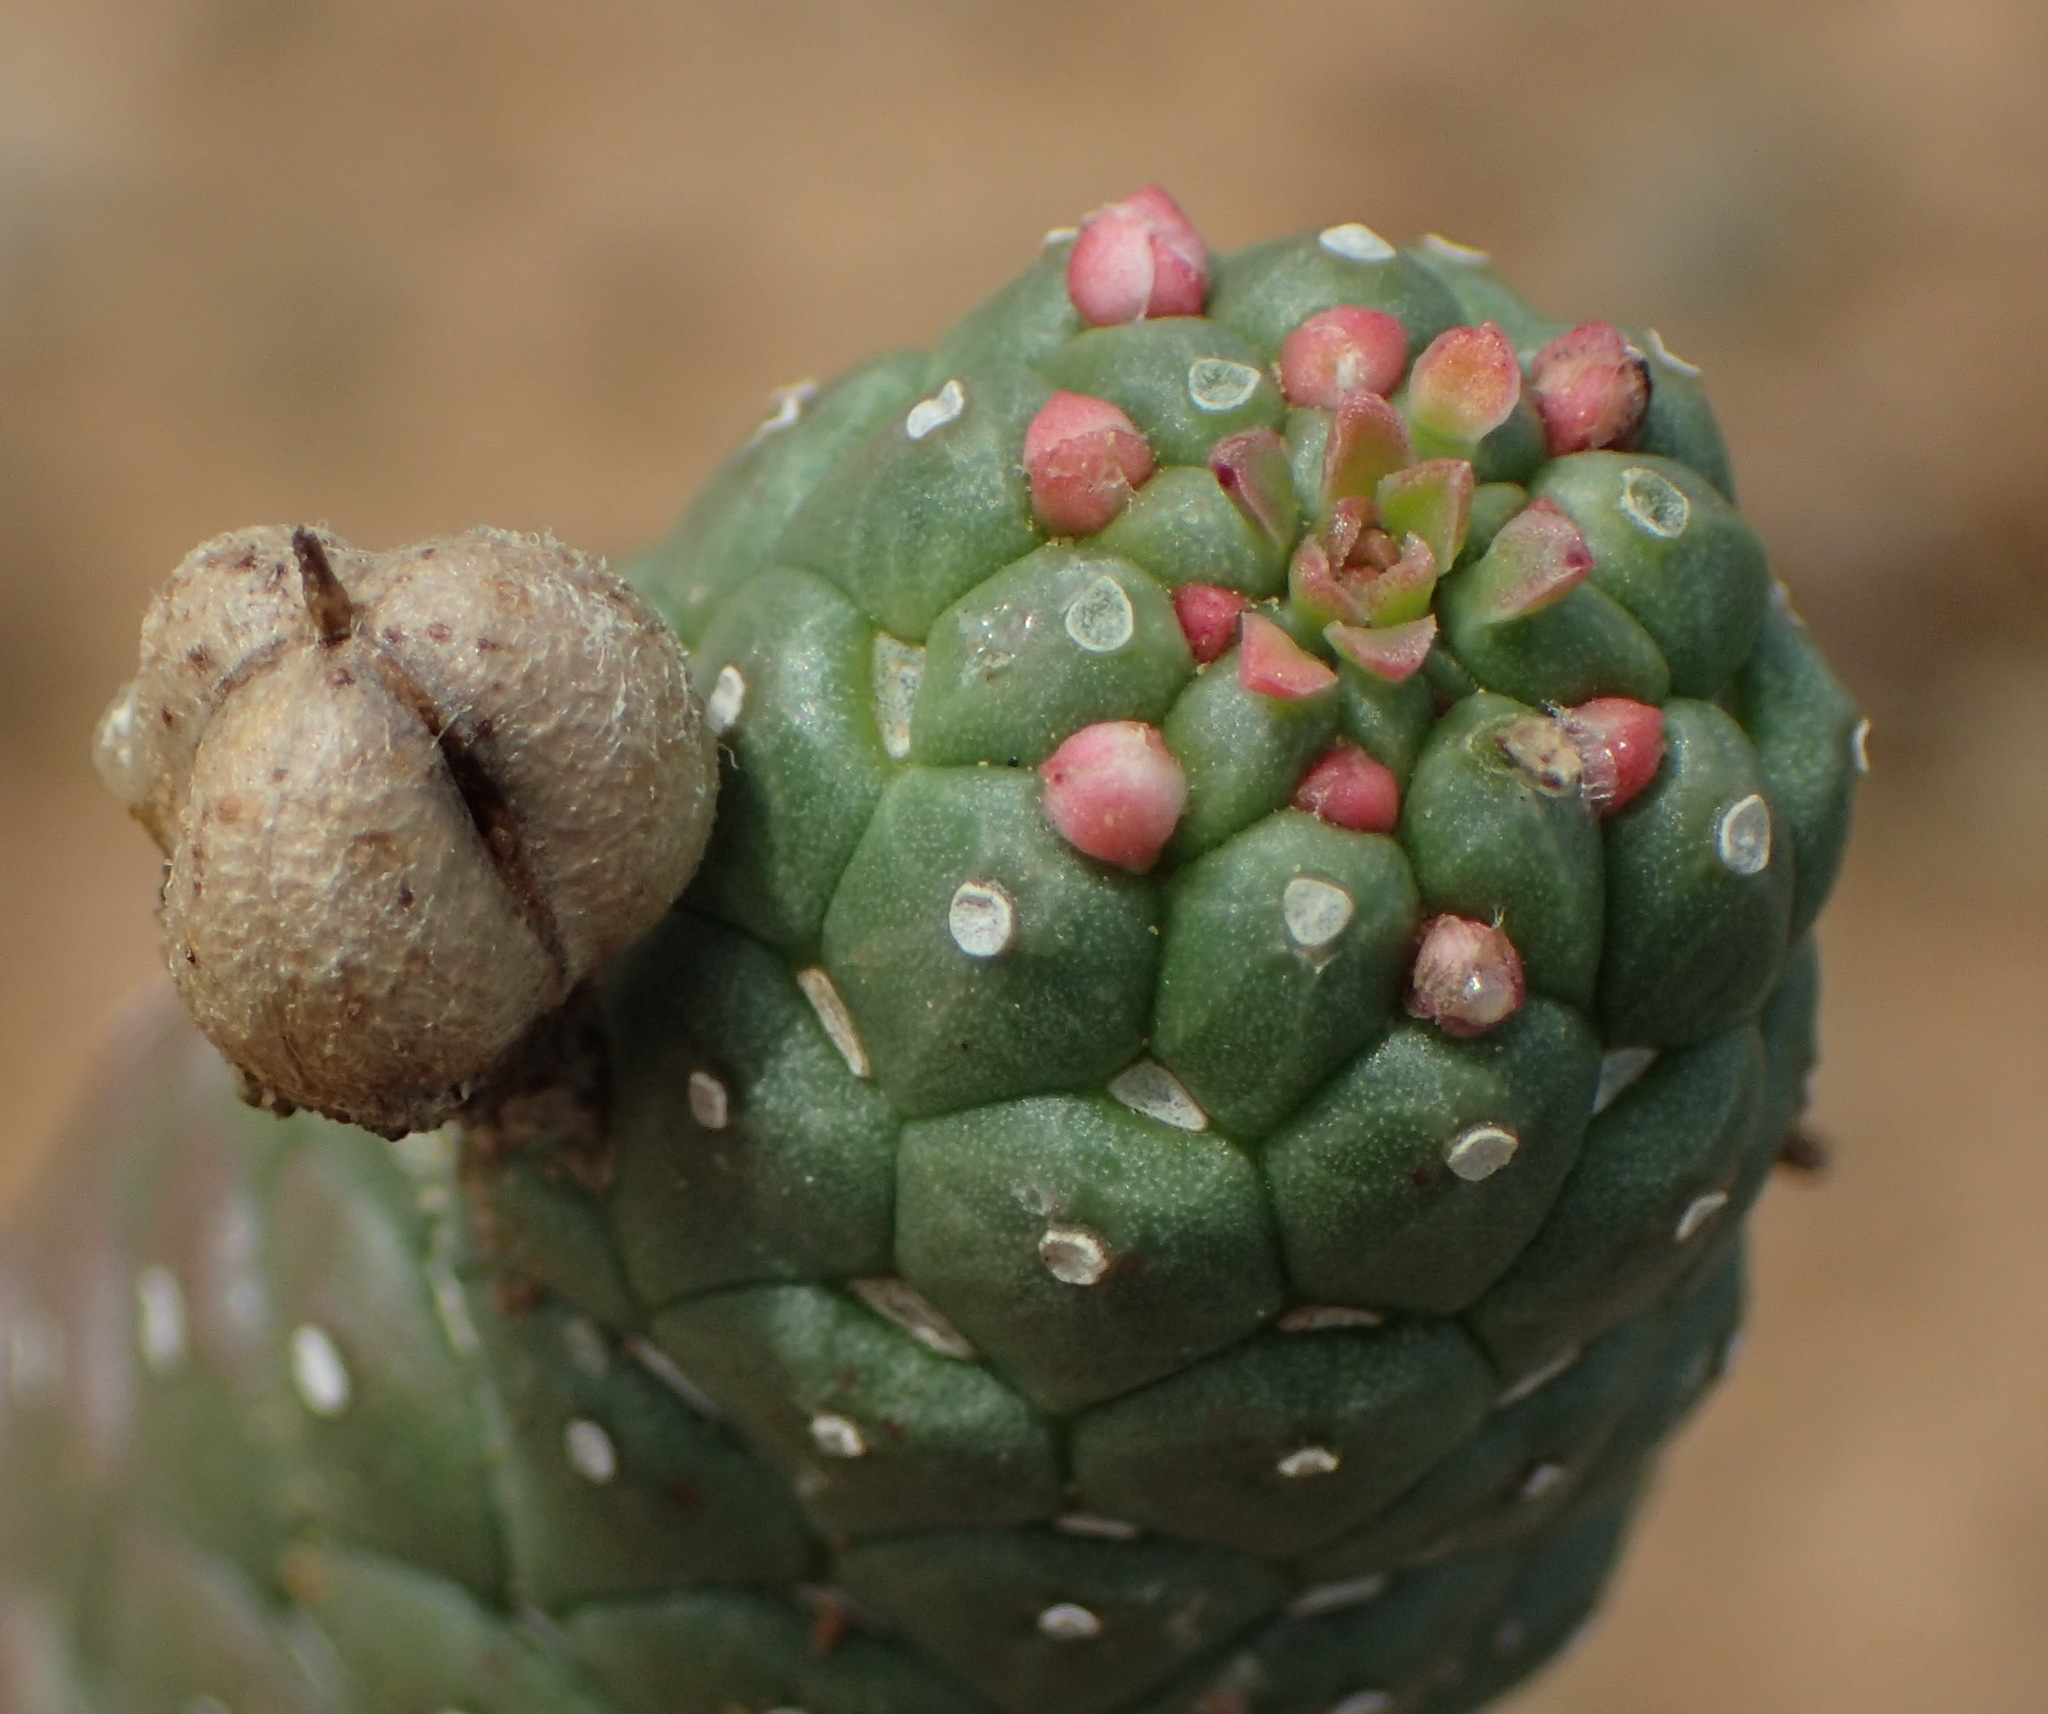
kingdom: Plantae
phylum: Tracheophyta
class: Magnoliopsida
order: Malpighiales
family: Euphorbiaceae
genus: Euphorbia
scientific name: Euphorbia esculenta
